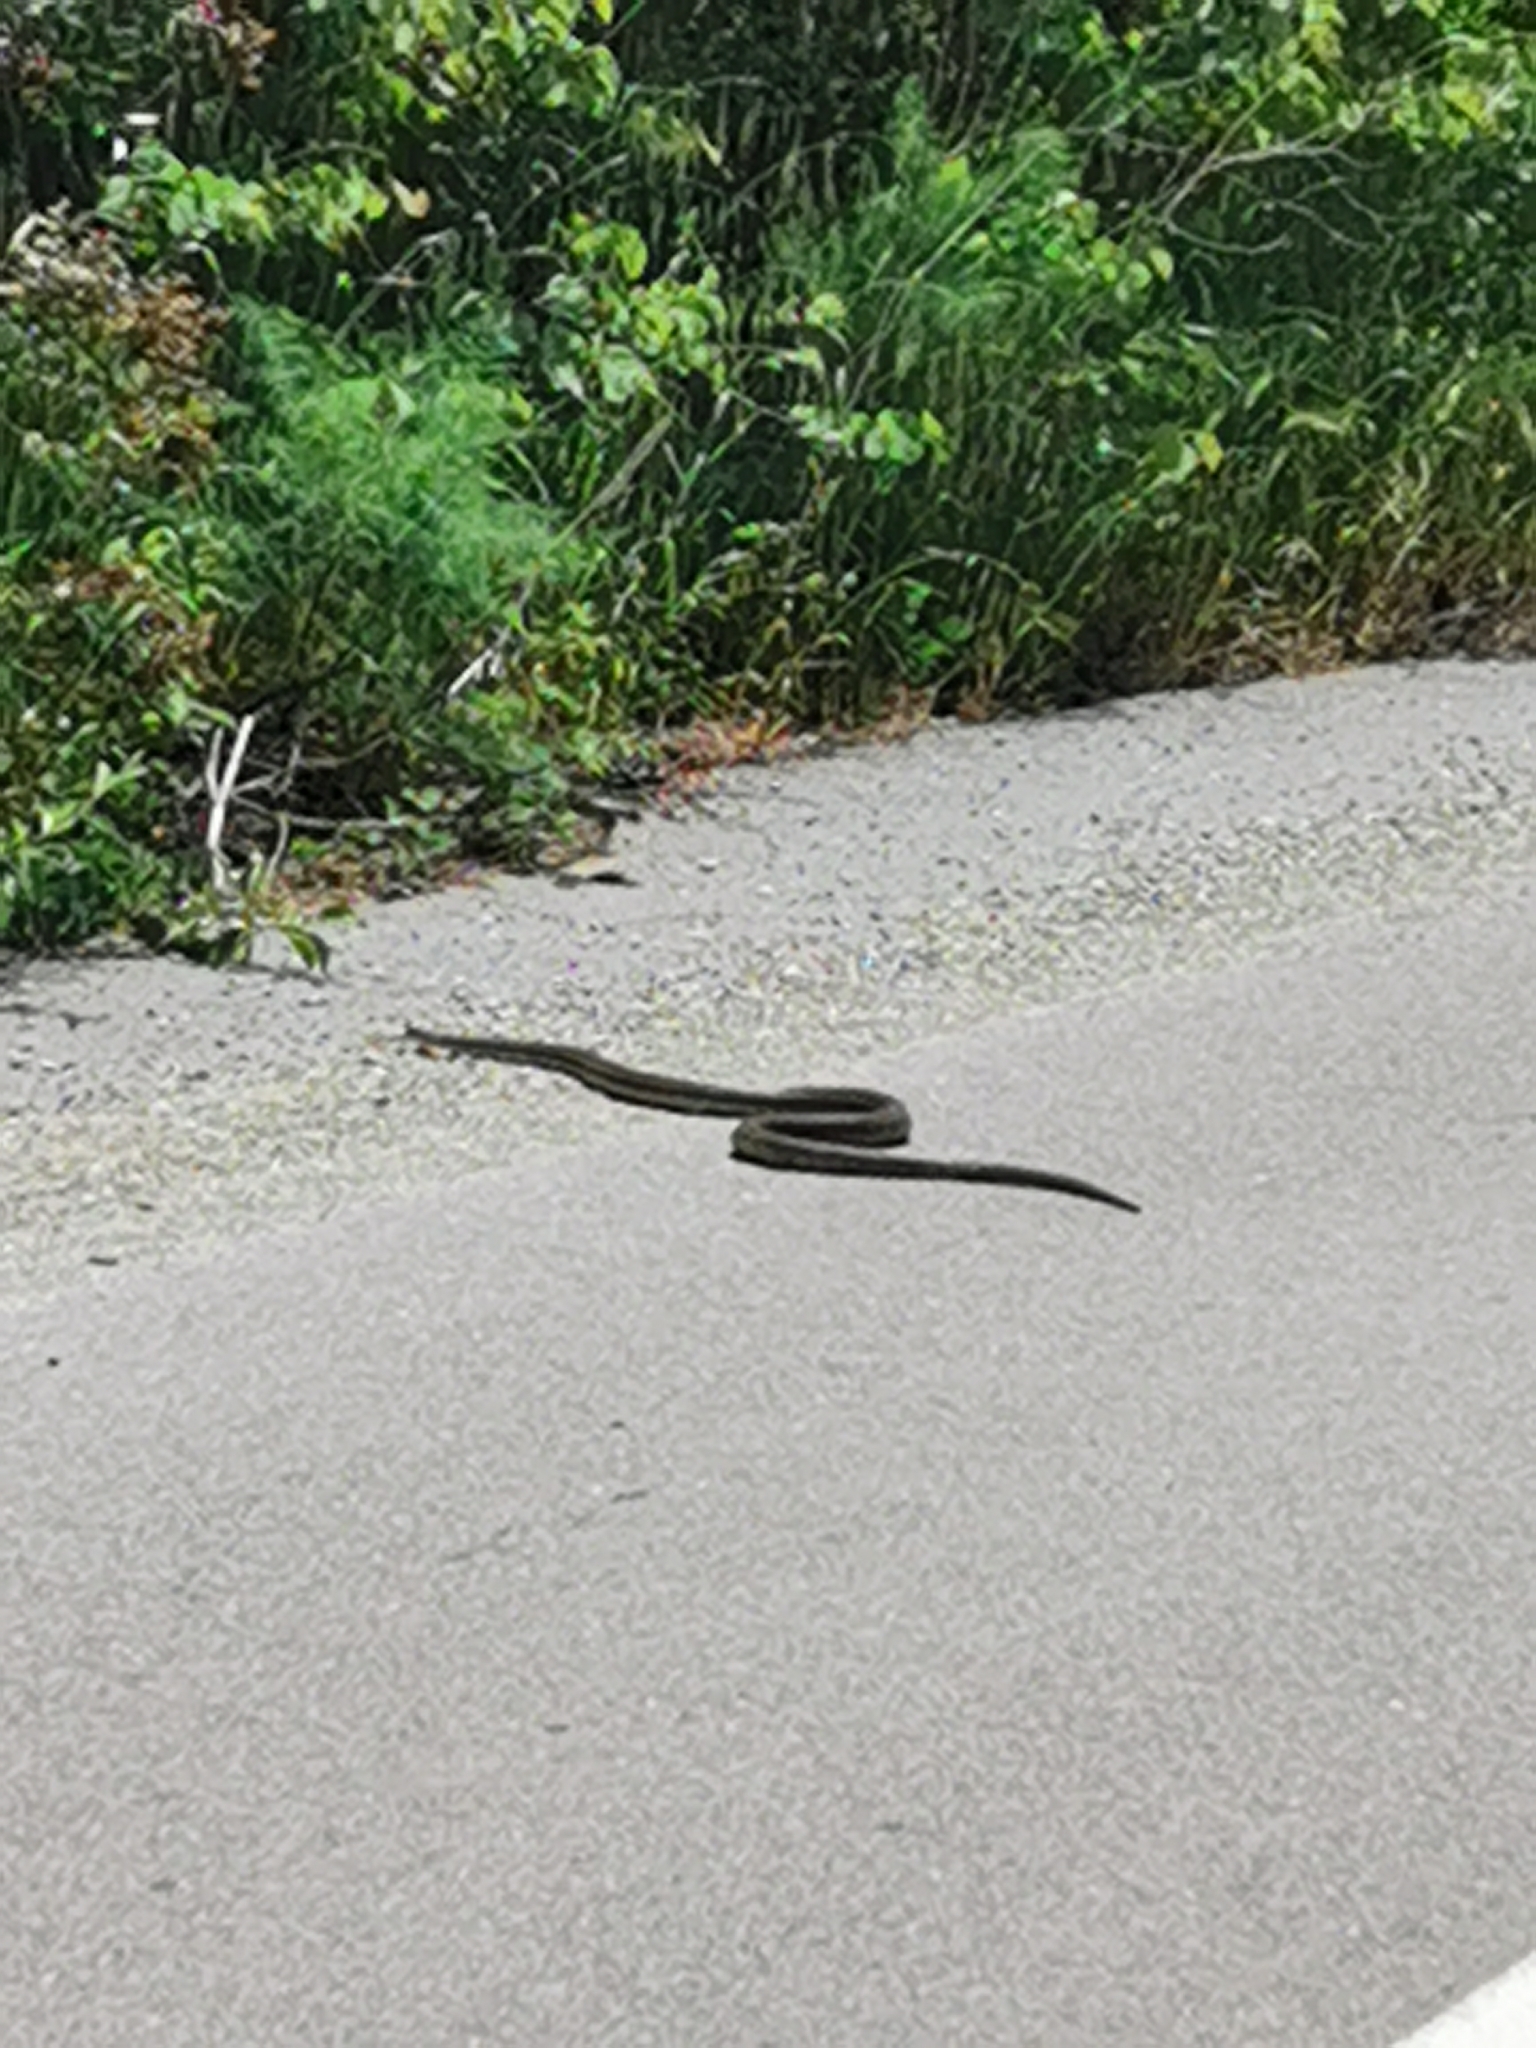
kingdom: Animalia
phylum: Chordata
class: Squamata
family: Colubridae
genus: Elaphe
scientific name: Elaphe quatuorlineata
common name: Four-lined snake
